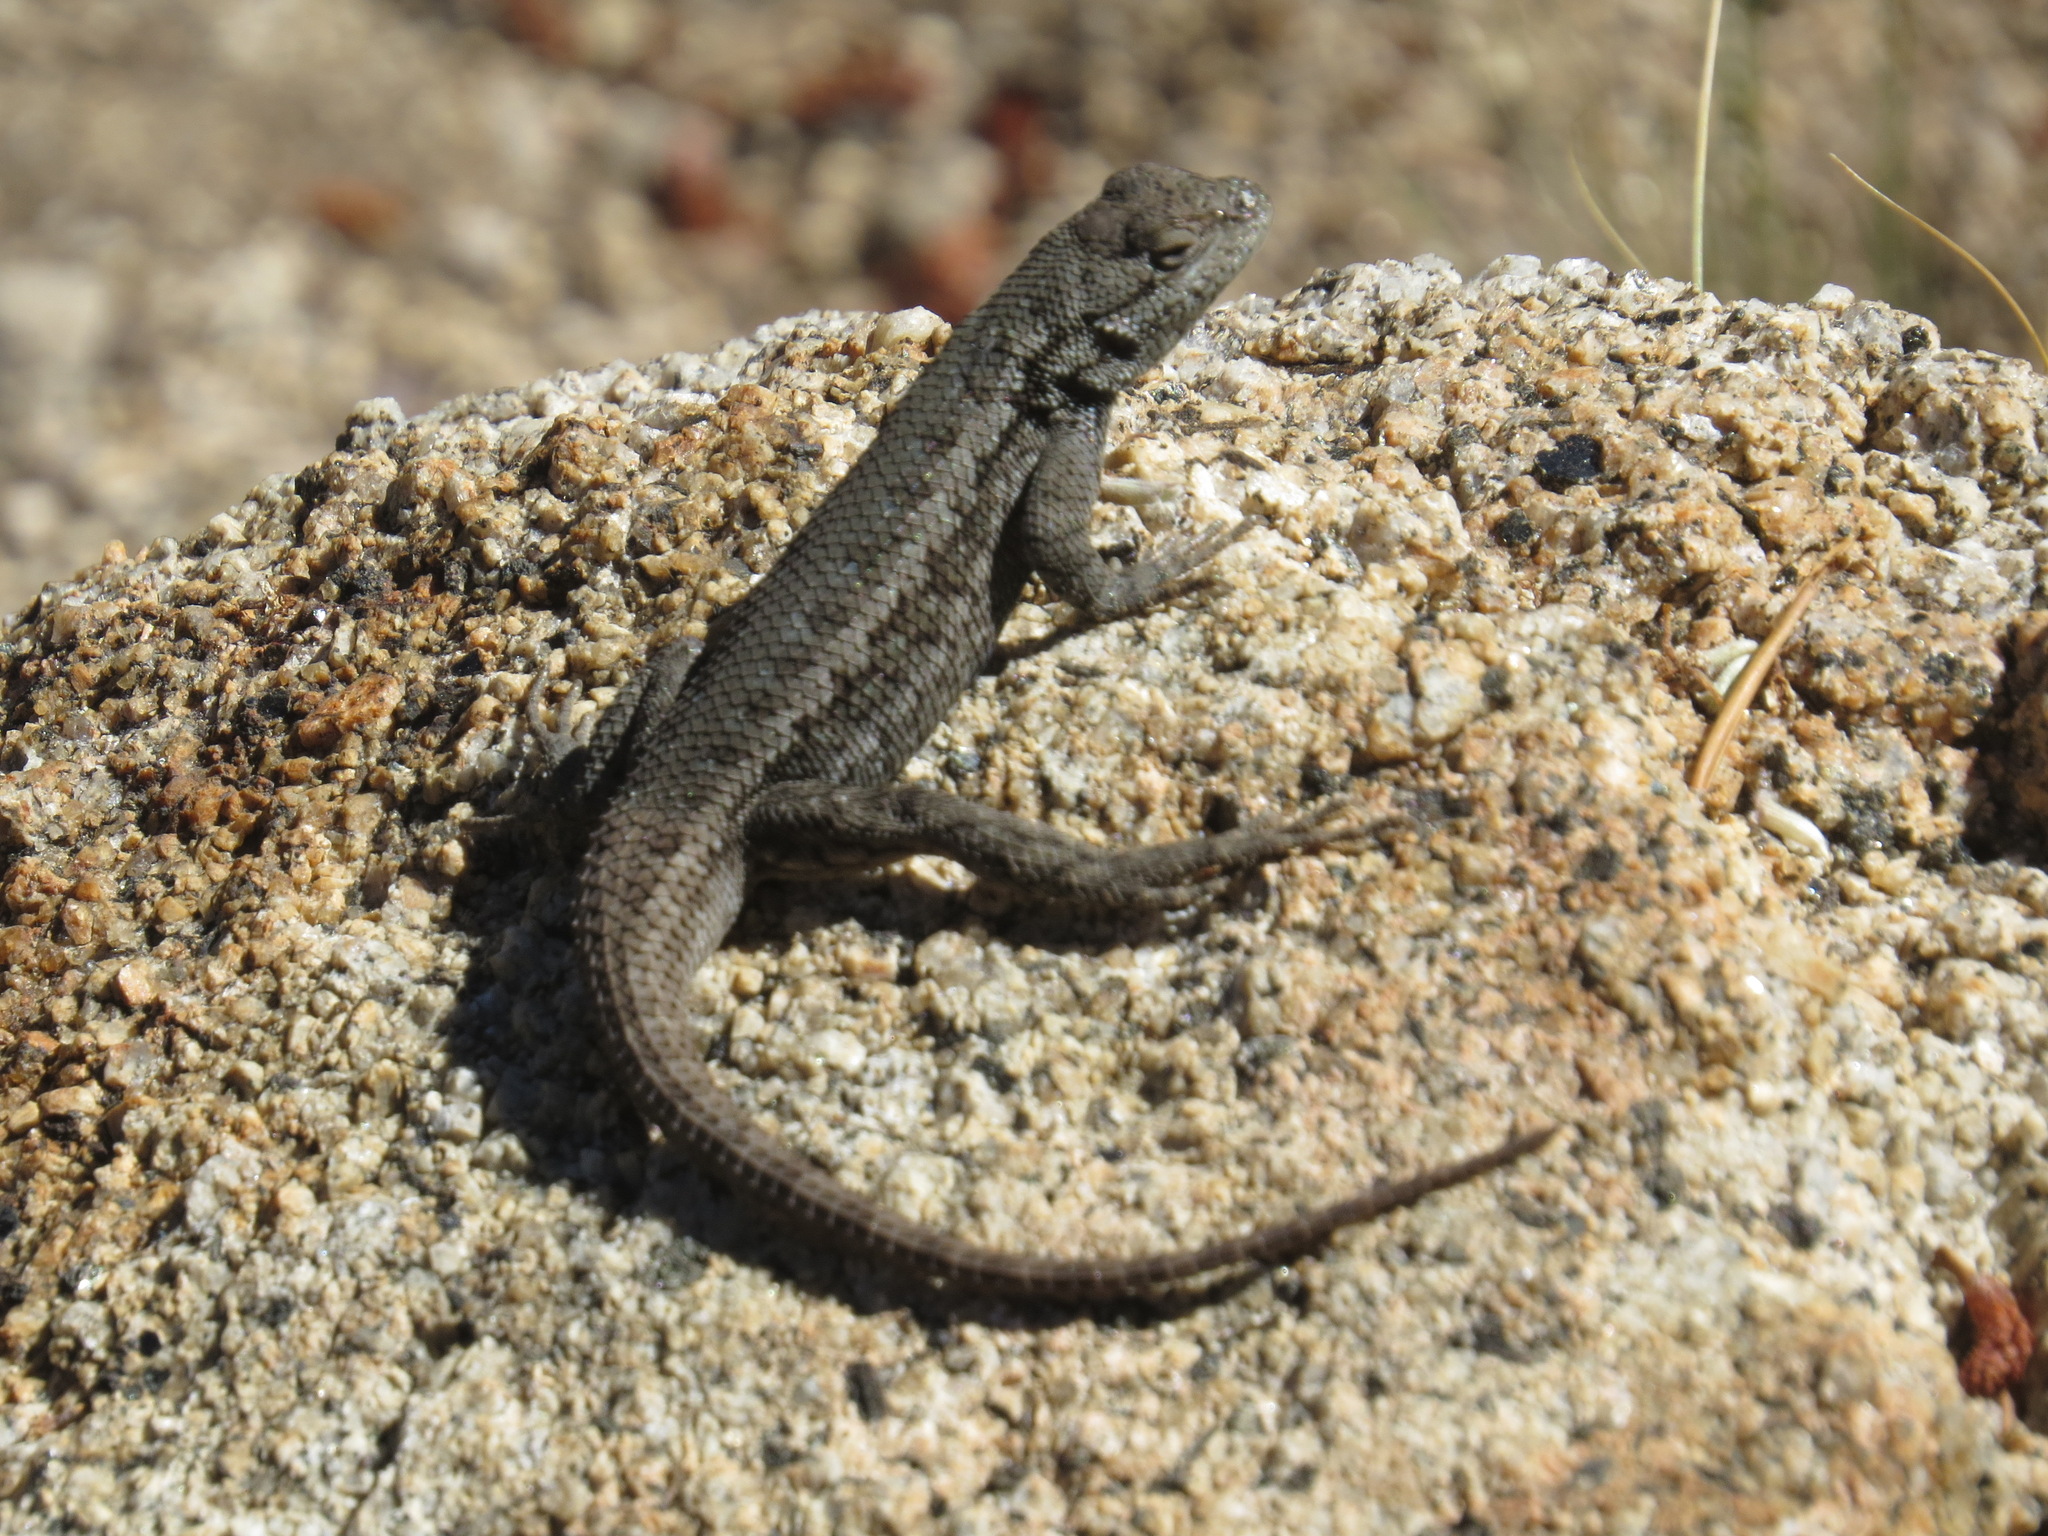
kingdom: Animalia
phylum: Chordata
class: Squamata
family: Phrynosomatidae
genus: Sceloporus
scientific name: Sceloporus occidentalis
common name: Western fence lizard
